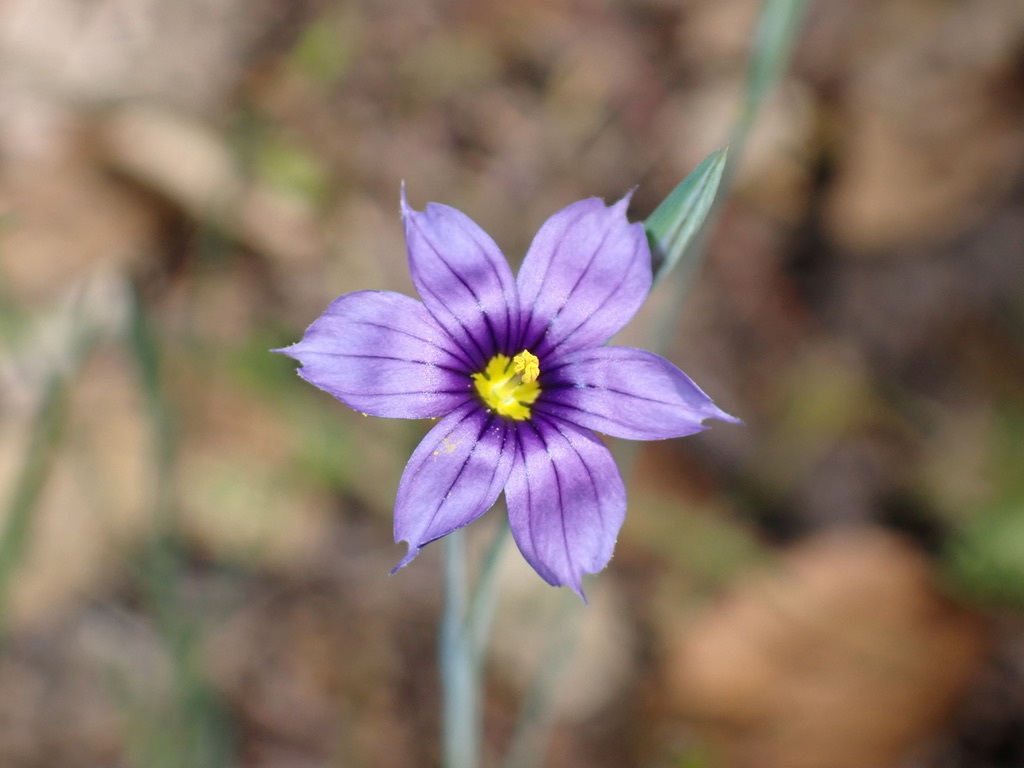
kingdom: Plantae
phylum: Tracheophyta
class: Liliopsida
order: Asparagales
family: Iridaceae
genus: Sisyrinchium
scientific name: Sisyrinchium bellum
